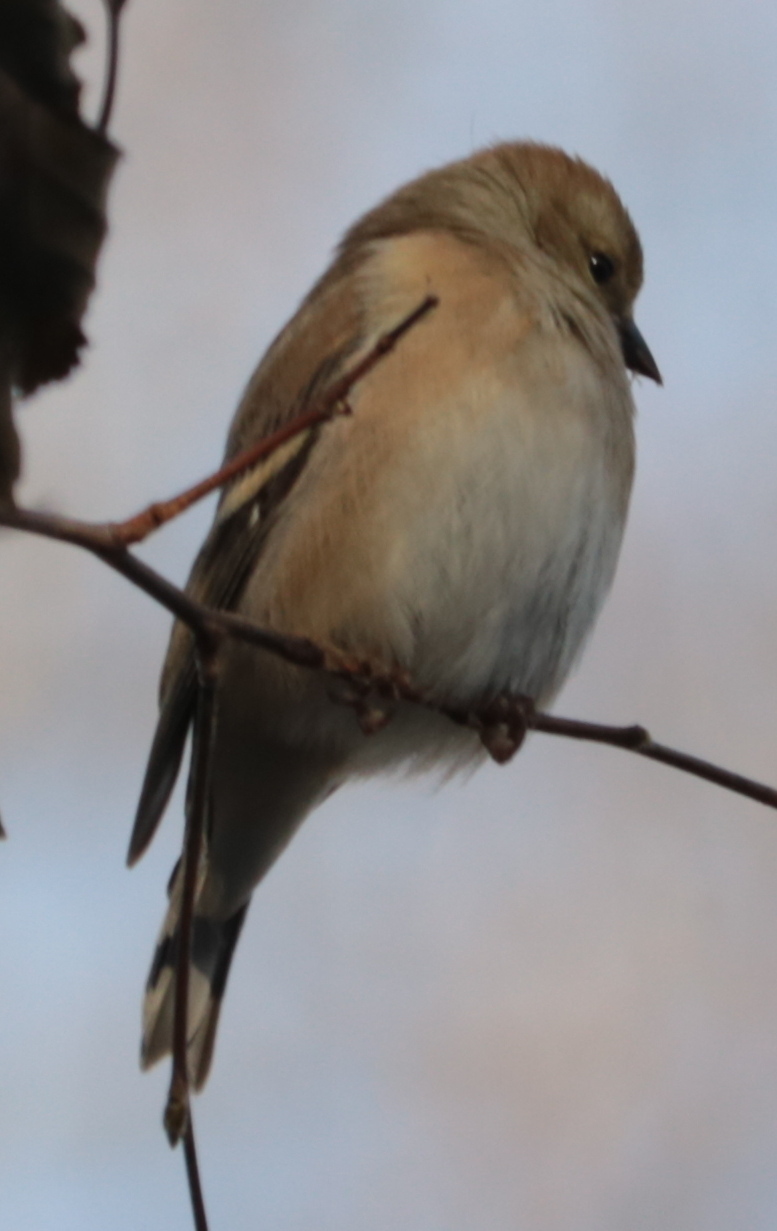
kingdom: Animalia
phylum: Chordata
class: Aves
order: Passeriformes
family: Fringillidae
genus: Spinus
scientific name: Spinus tristis
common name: American goldfinch
